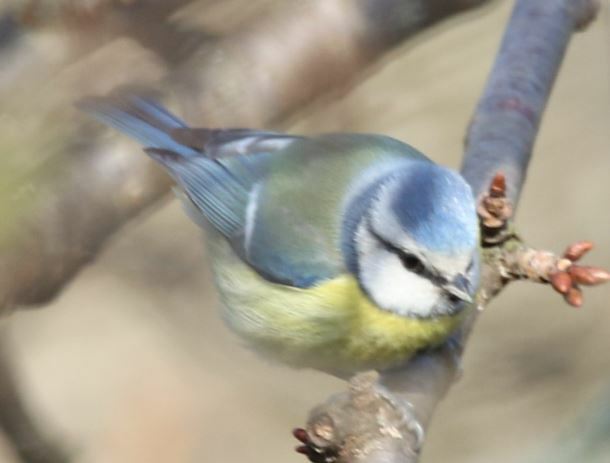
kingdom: Animalia
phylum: Chordata
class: Aves
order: Passeriformes
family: Paridae
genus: Cyanistes
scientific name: Cyanistes caeruleus
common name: Eurasian blue tit
